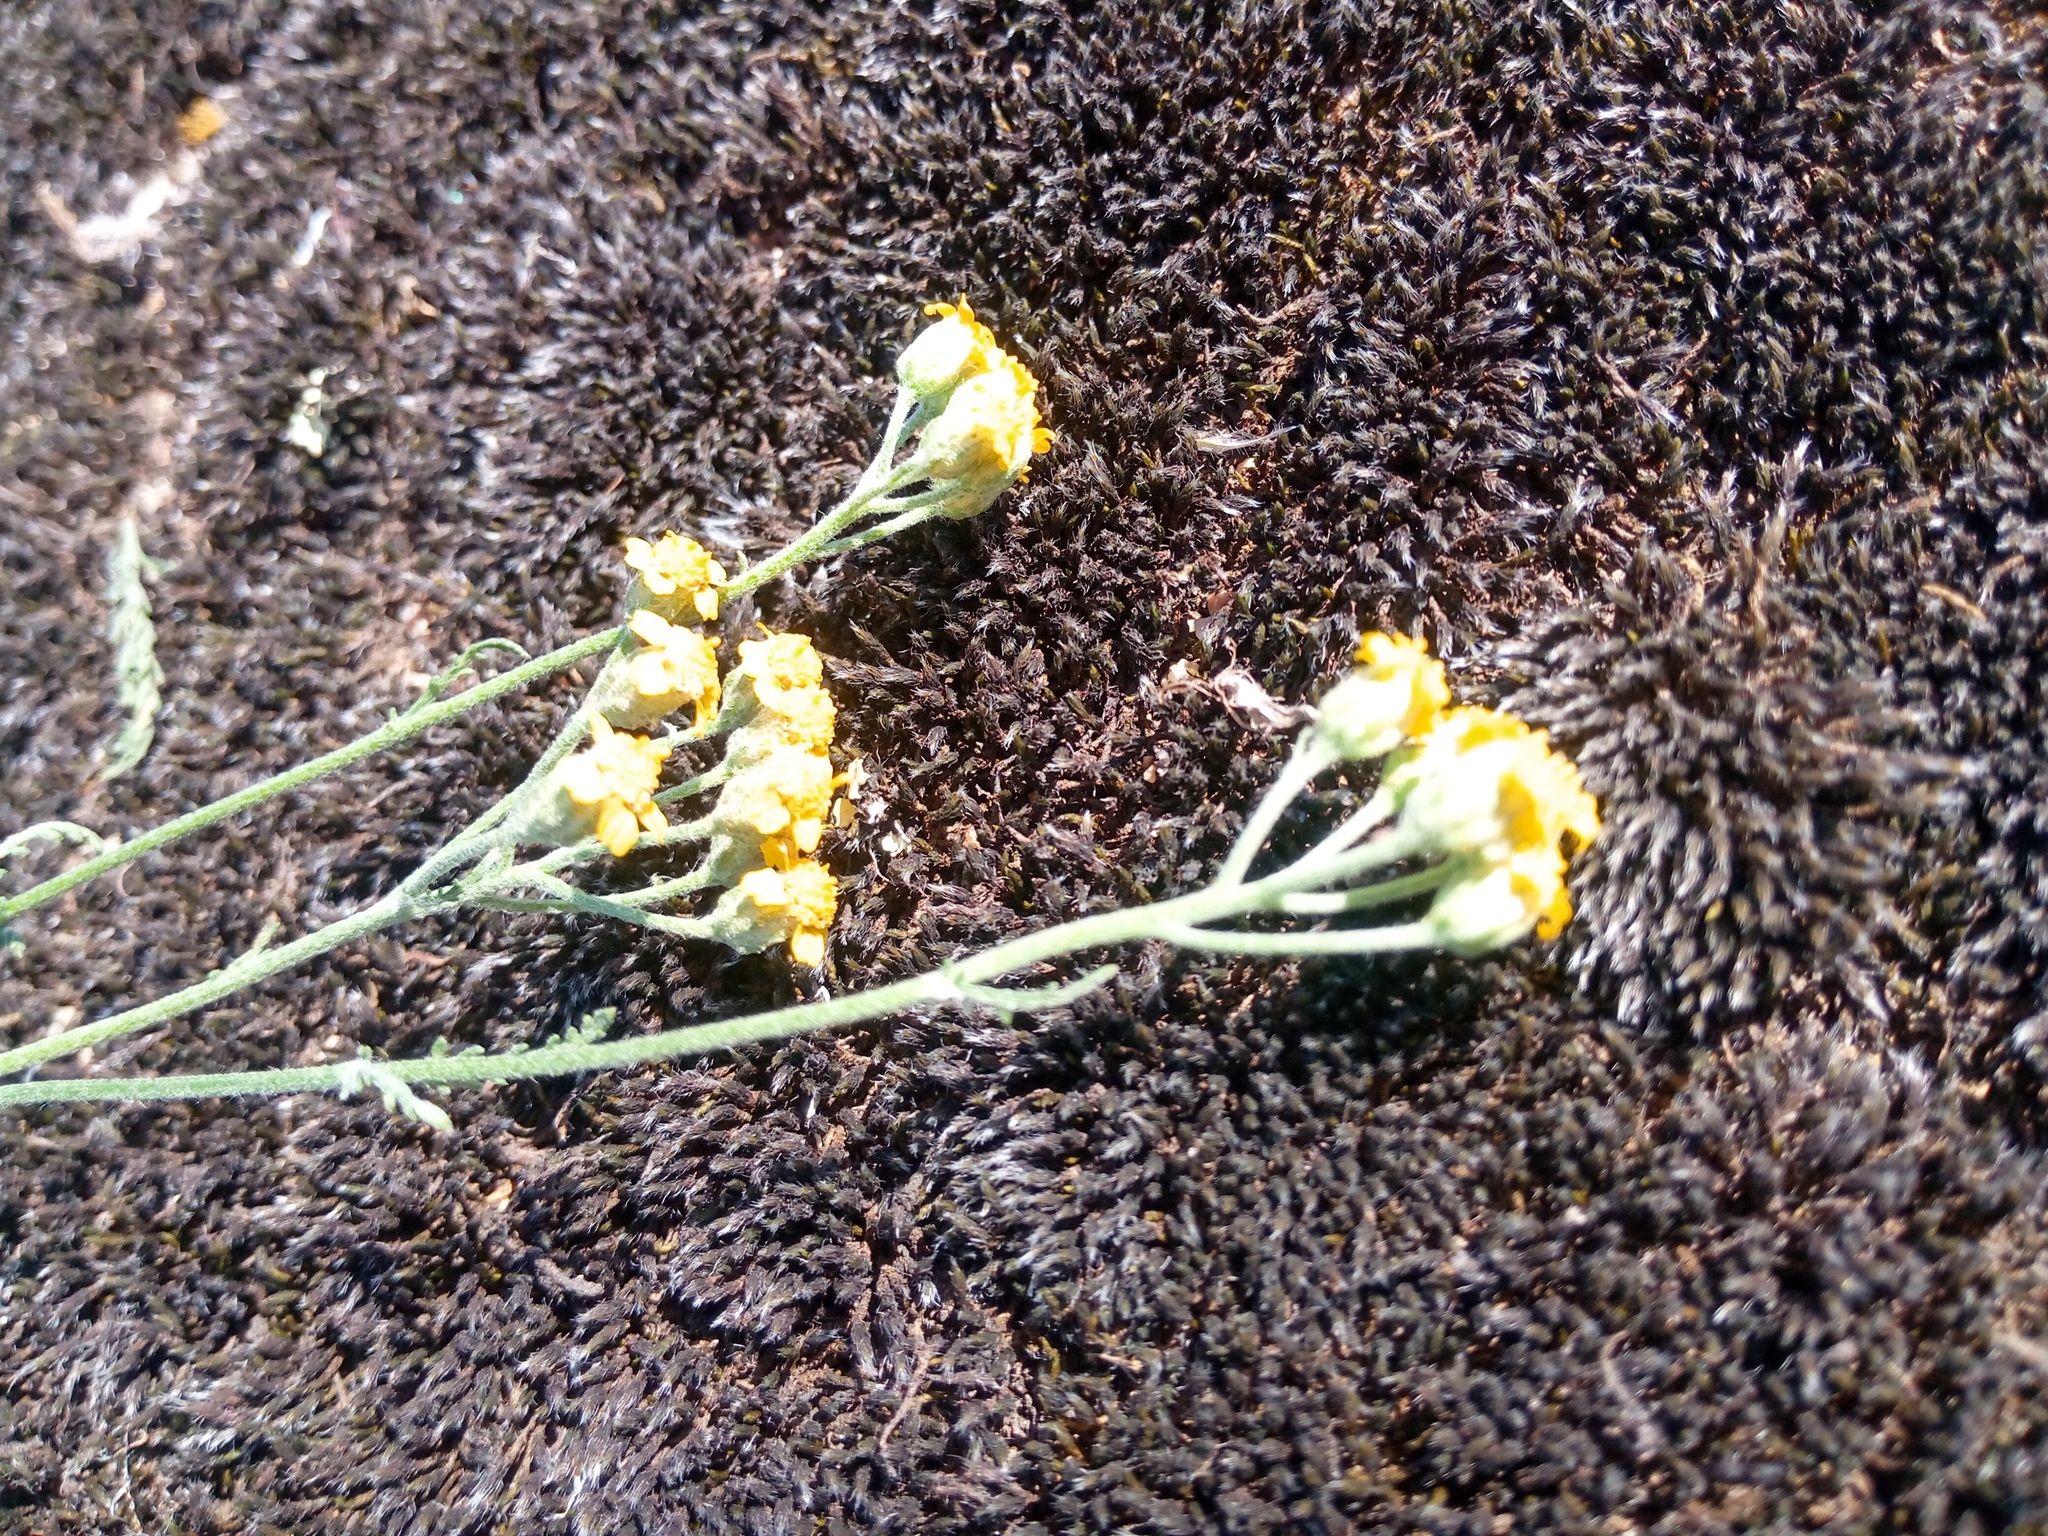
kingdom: Plantae
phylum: Tracheophyta
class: Magnoliopsida
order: Asterales
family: Asteraceae
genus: Achillea
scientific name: Achillea leptophylla
